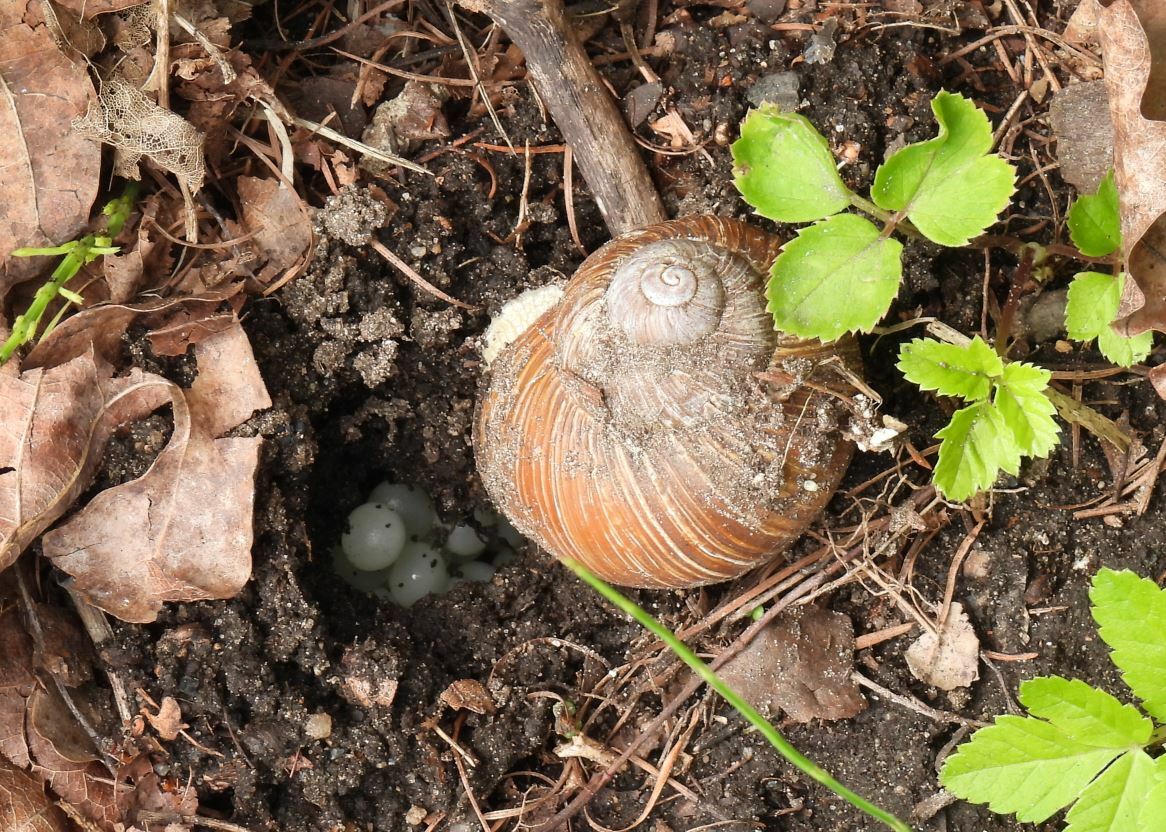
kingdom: Animalia
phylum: Mollusca
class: Gastropoda
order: Stylommatophora
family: Helicidae
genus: Helix
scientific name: Helix pomatia
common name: Roman snail
